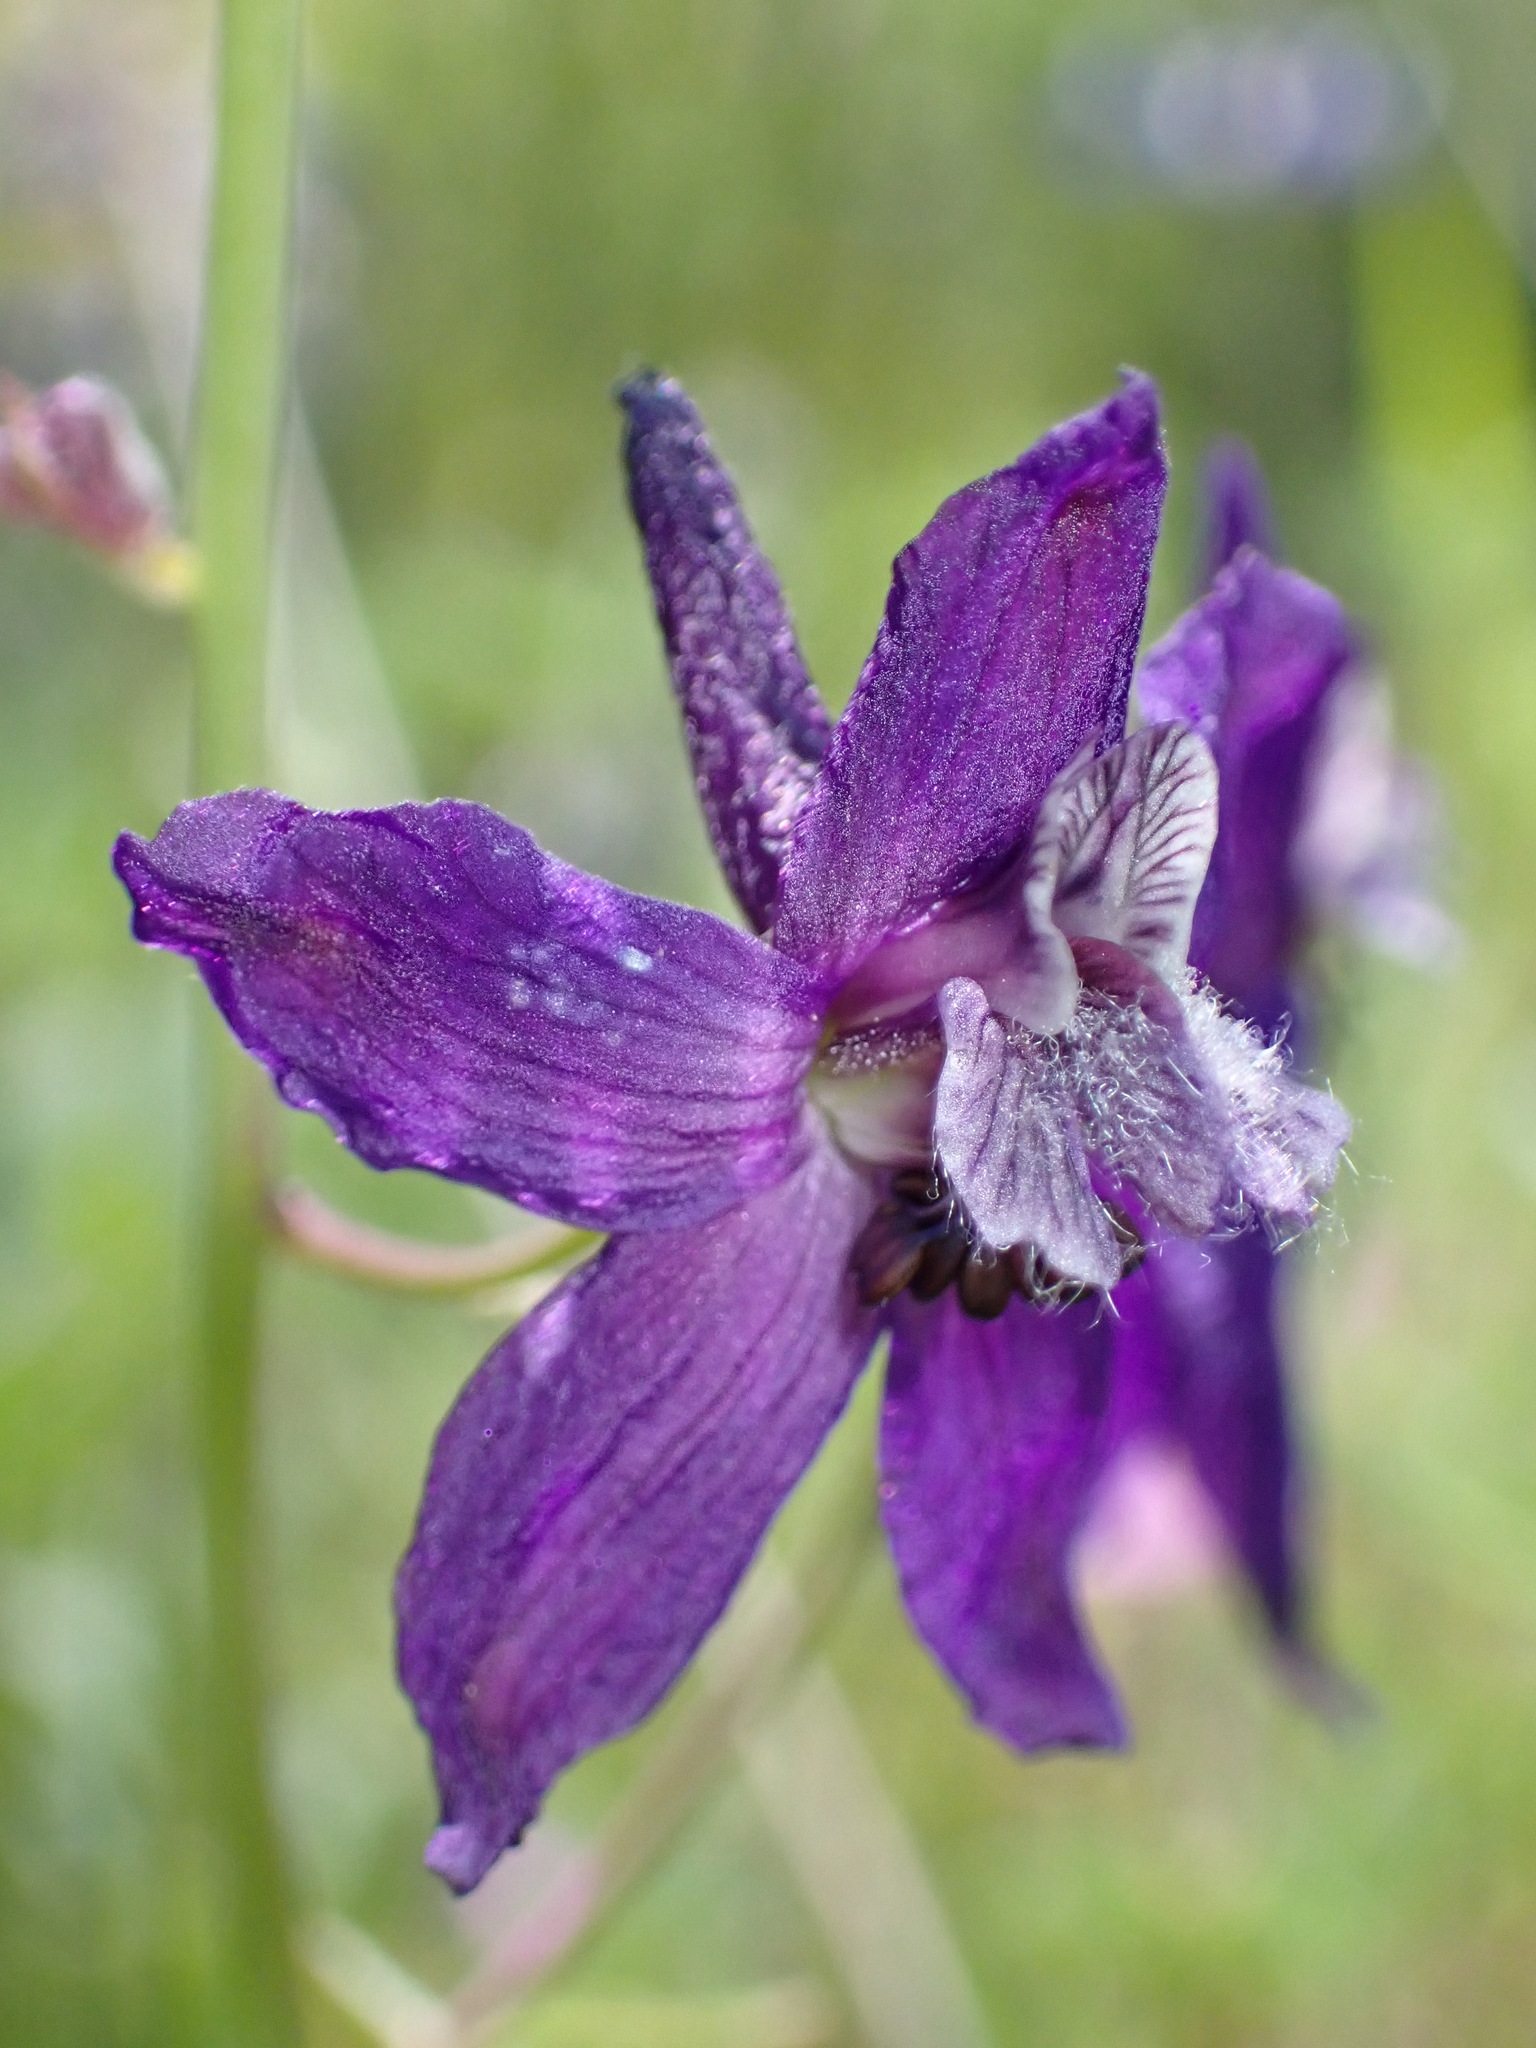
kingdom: Plantae
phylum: Tracheophyta
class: Magnoliopsida
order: Ranunculales
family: Ranunculaceae
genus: Delphinium
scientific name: Delphinium patens
